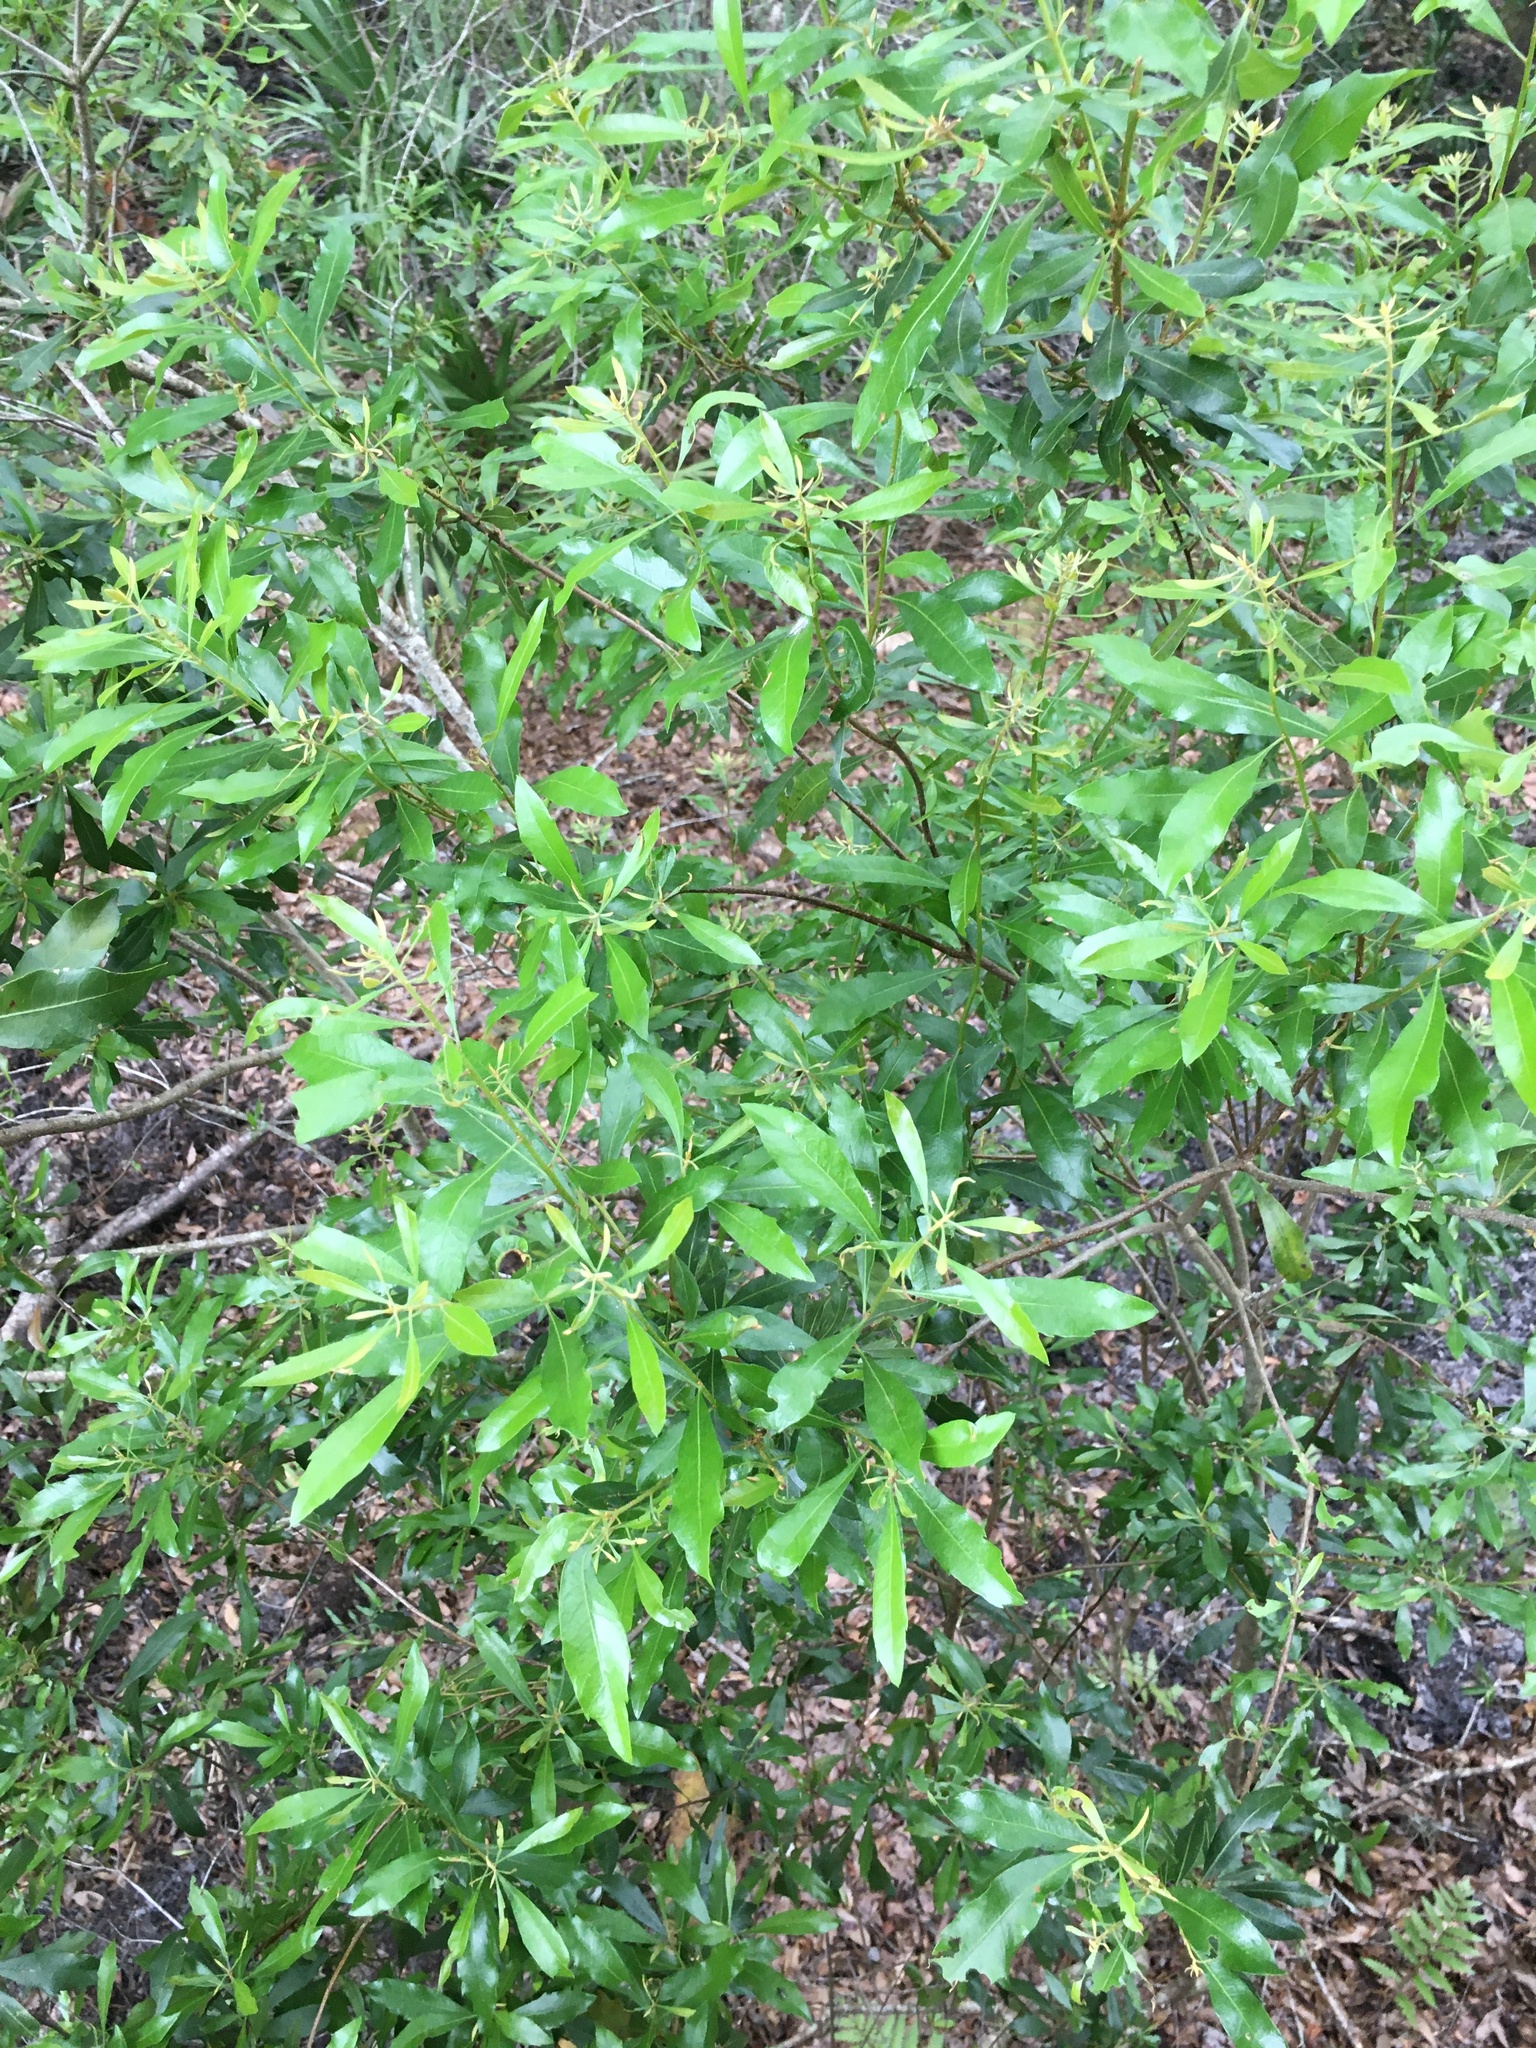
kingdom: Plantae
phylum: Tracheophyta
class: Magnoliopsida
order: Fagales
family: Myricaceae
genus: Morella
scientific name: Morella cerifera
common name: Wax myrtle
